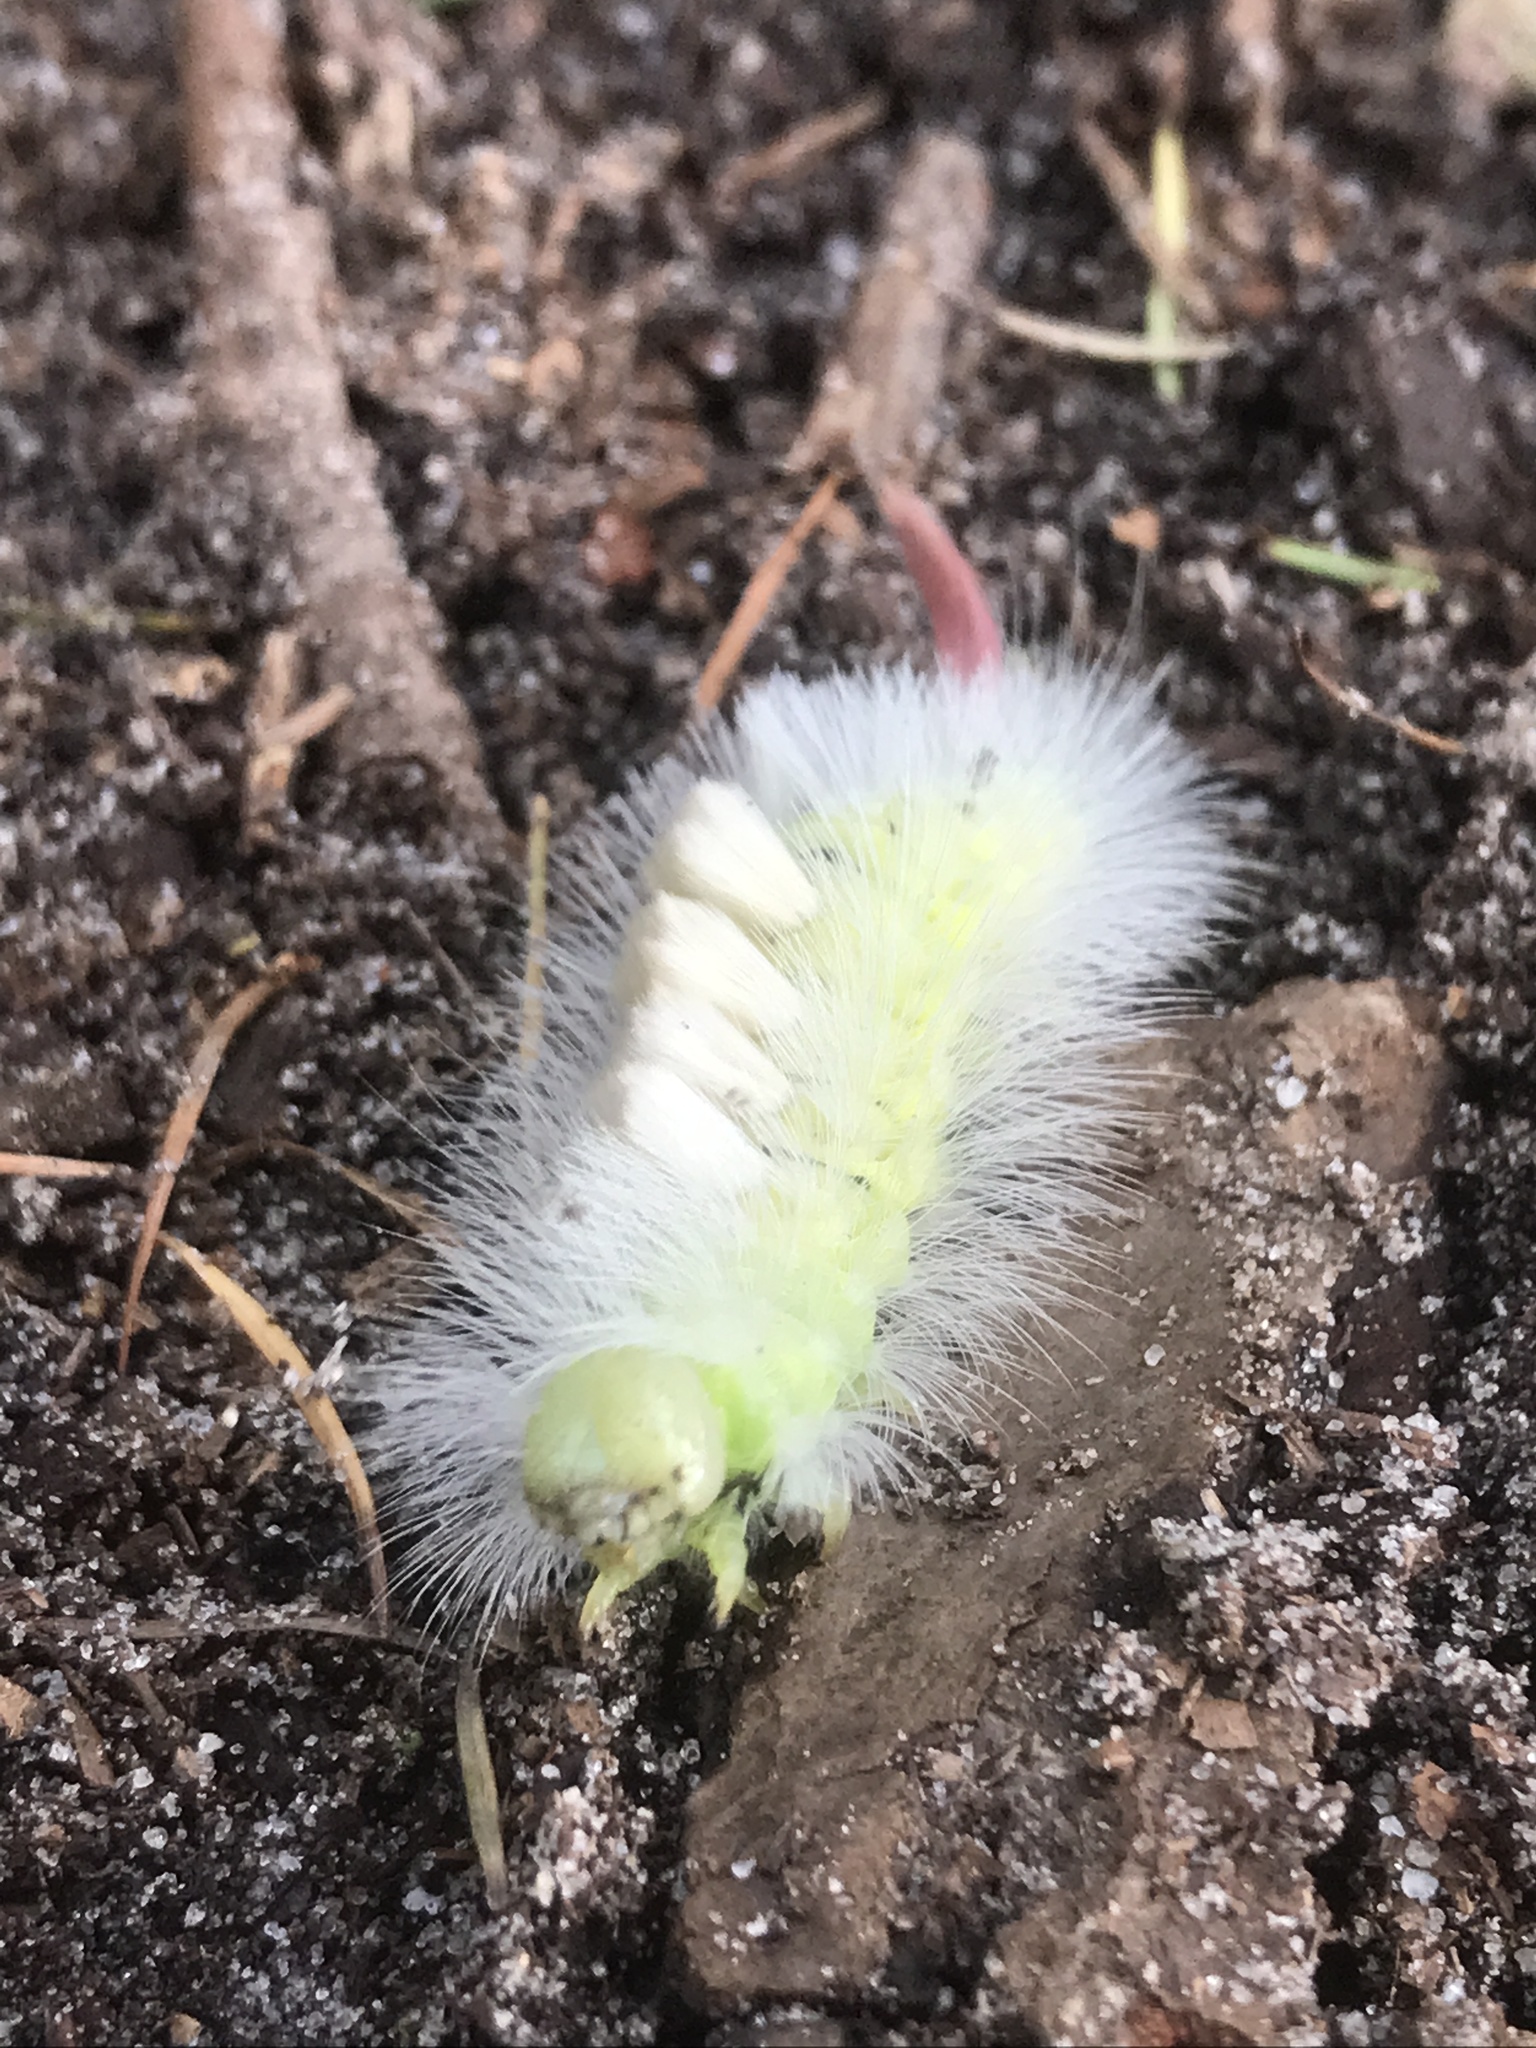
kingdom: Animalia
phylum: Arthropoda
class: Insecta
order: Lepidoptera
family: Erebidae
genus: Calliteara
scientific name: Calliteara pudibunda
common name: Pale tussock
